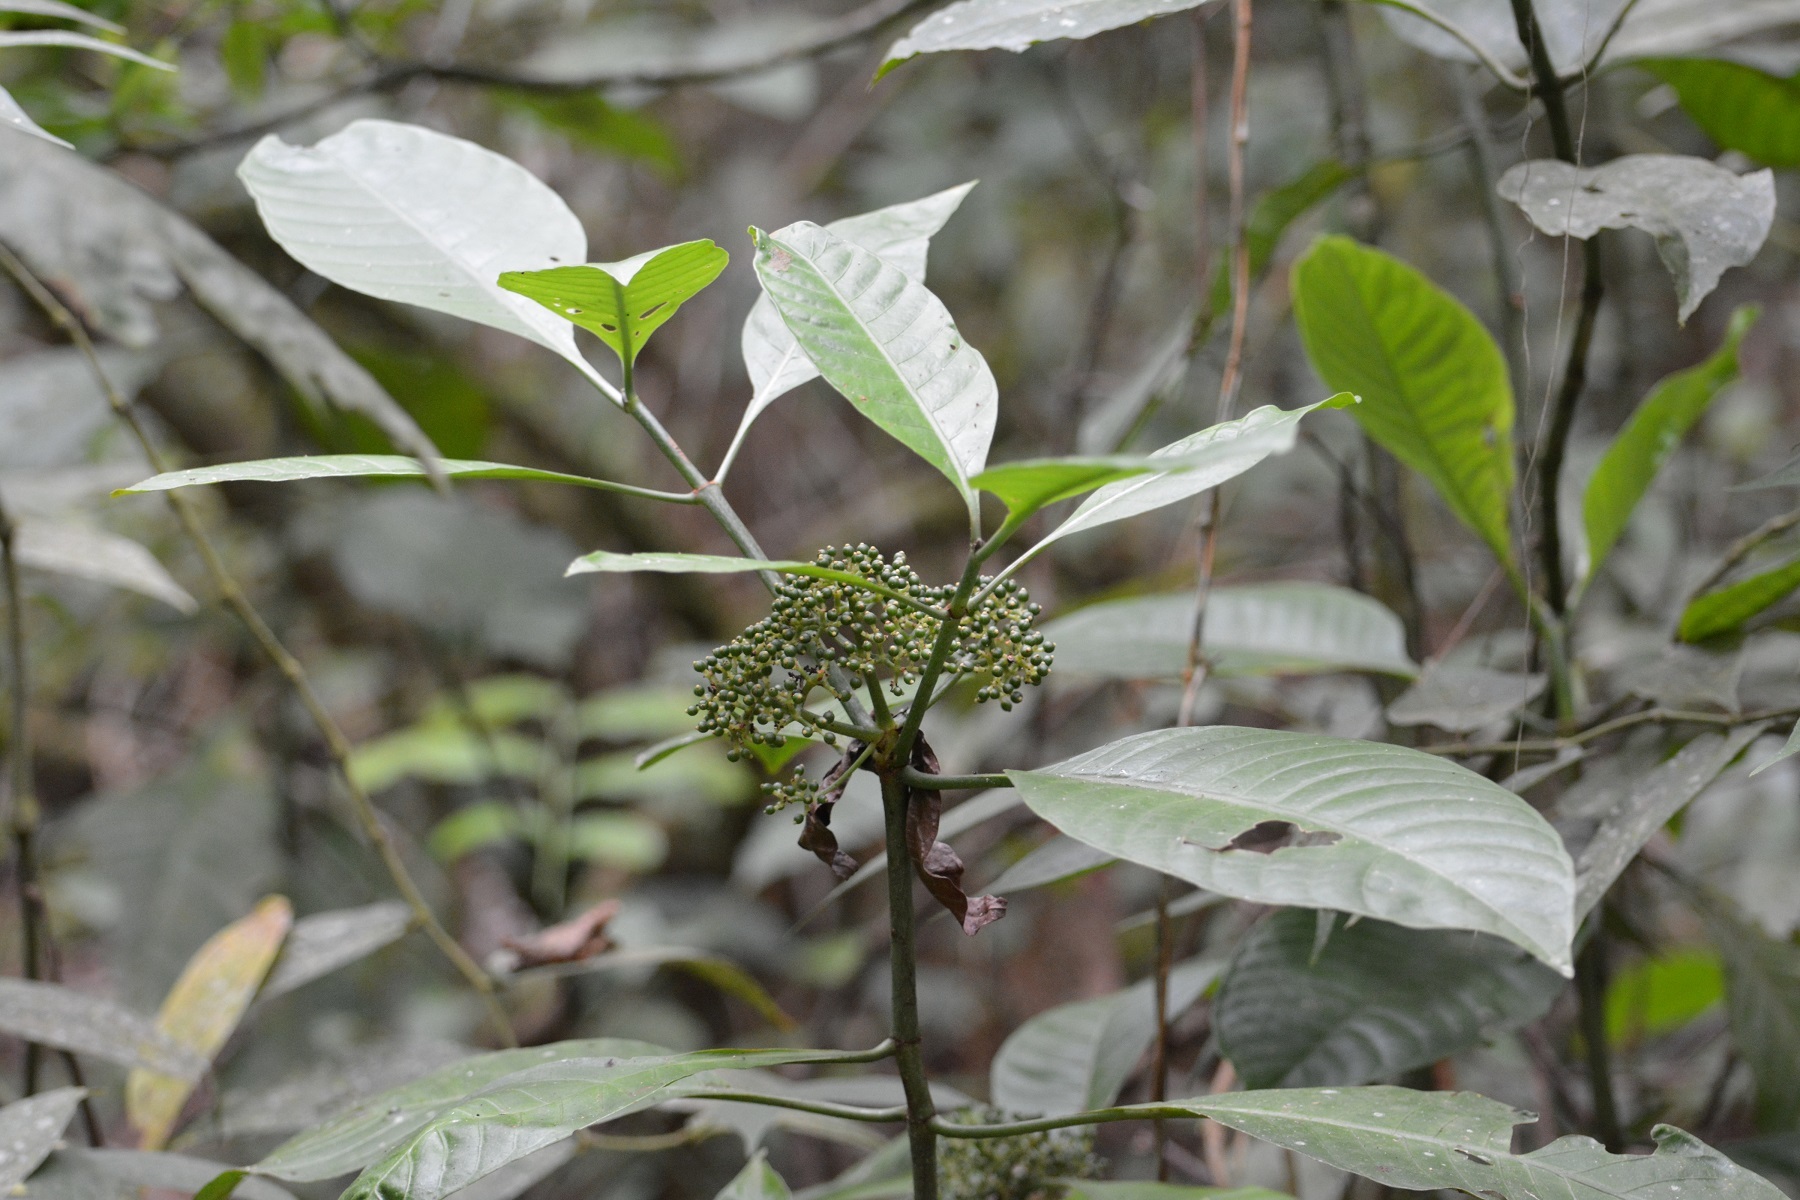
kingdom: Plantae
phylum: Tracheophyta
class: Magnoliopsida
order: Gentianales
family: Rubiaceae
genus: Psychotria
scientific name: Psychotria trichotoma
